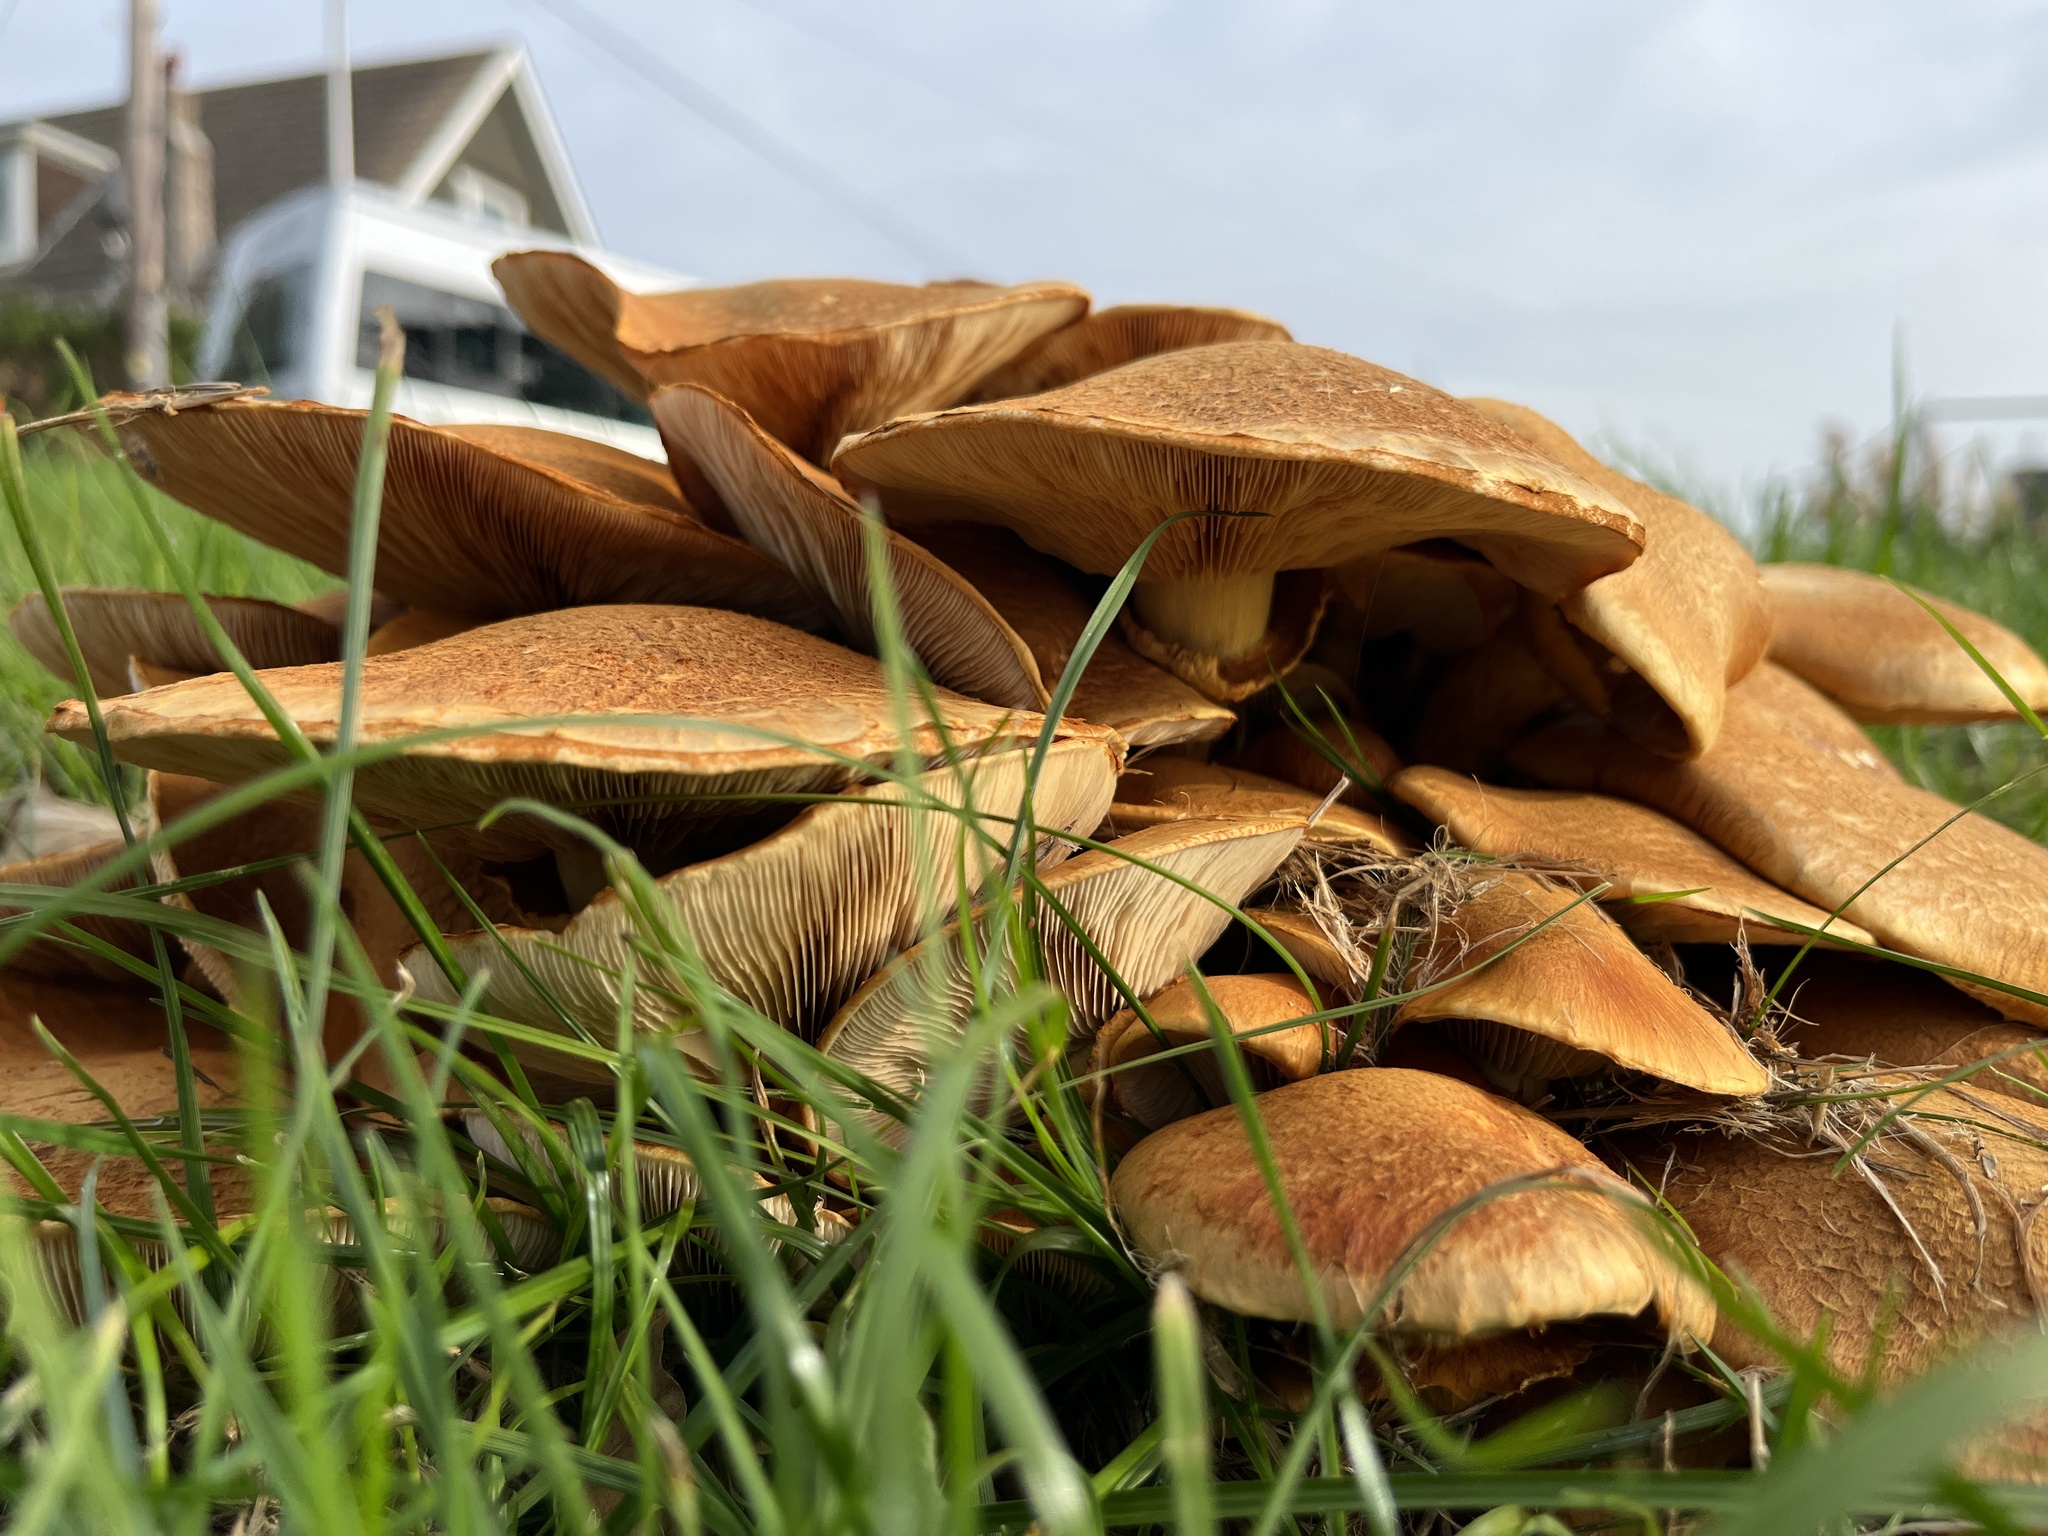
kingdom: Fungi
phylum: Basidiomycota
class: Agaricomycetes
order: Agaricales
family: Hymenogastraceae
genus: Gymnopilus
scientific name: Gymnopilus junonius
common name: Spectacular rustgill
